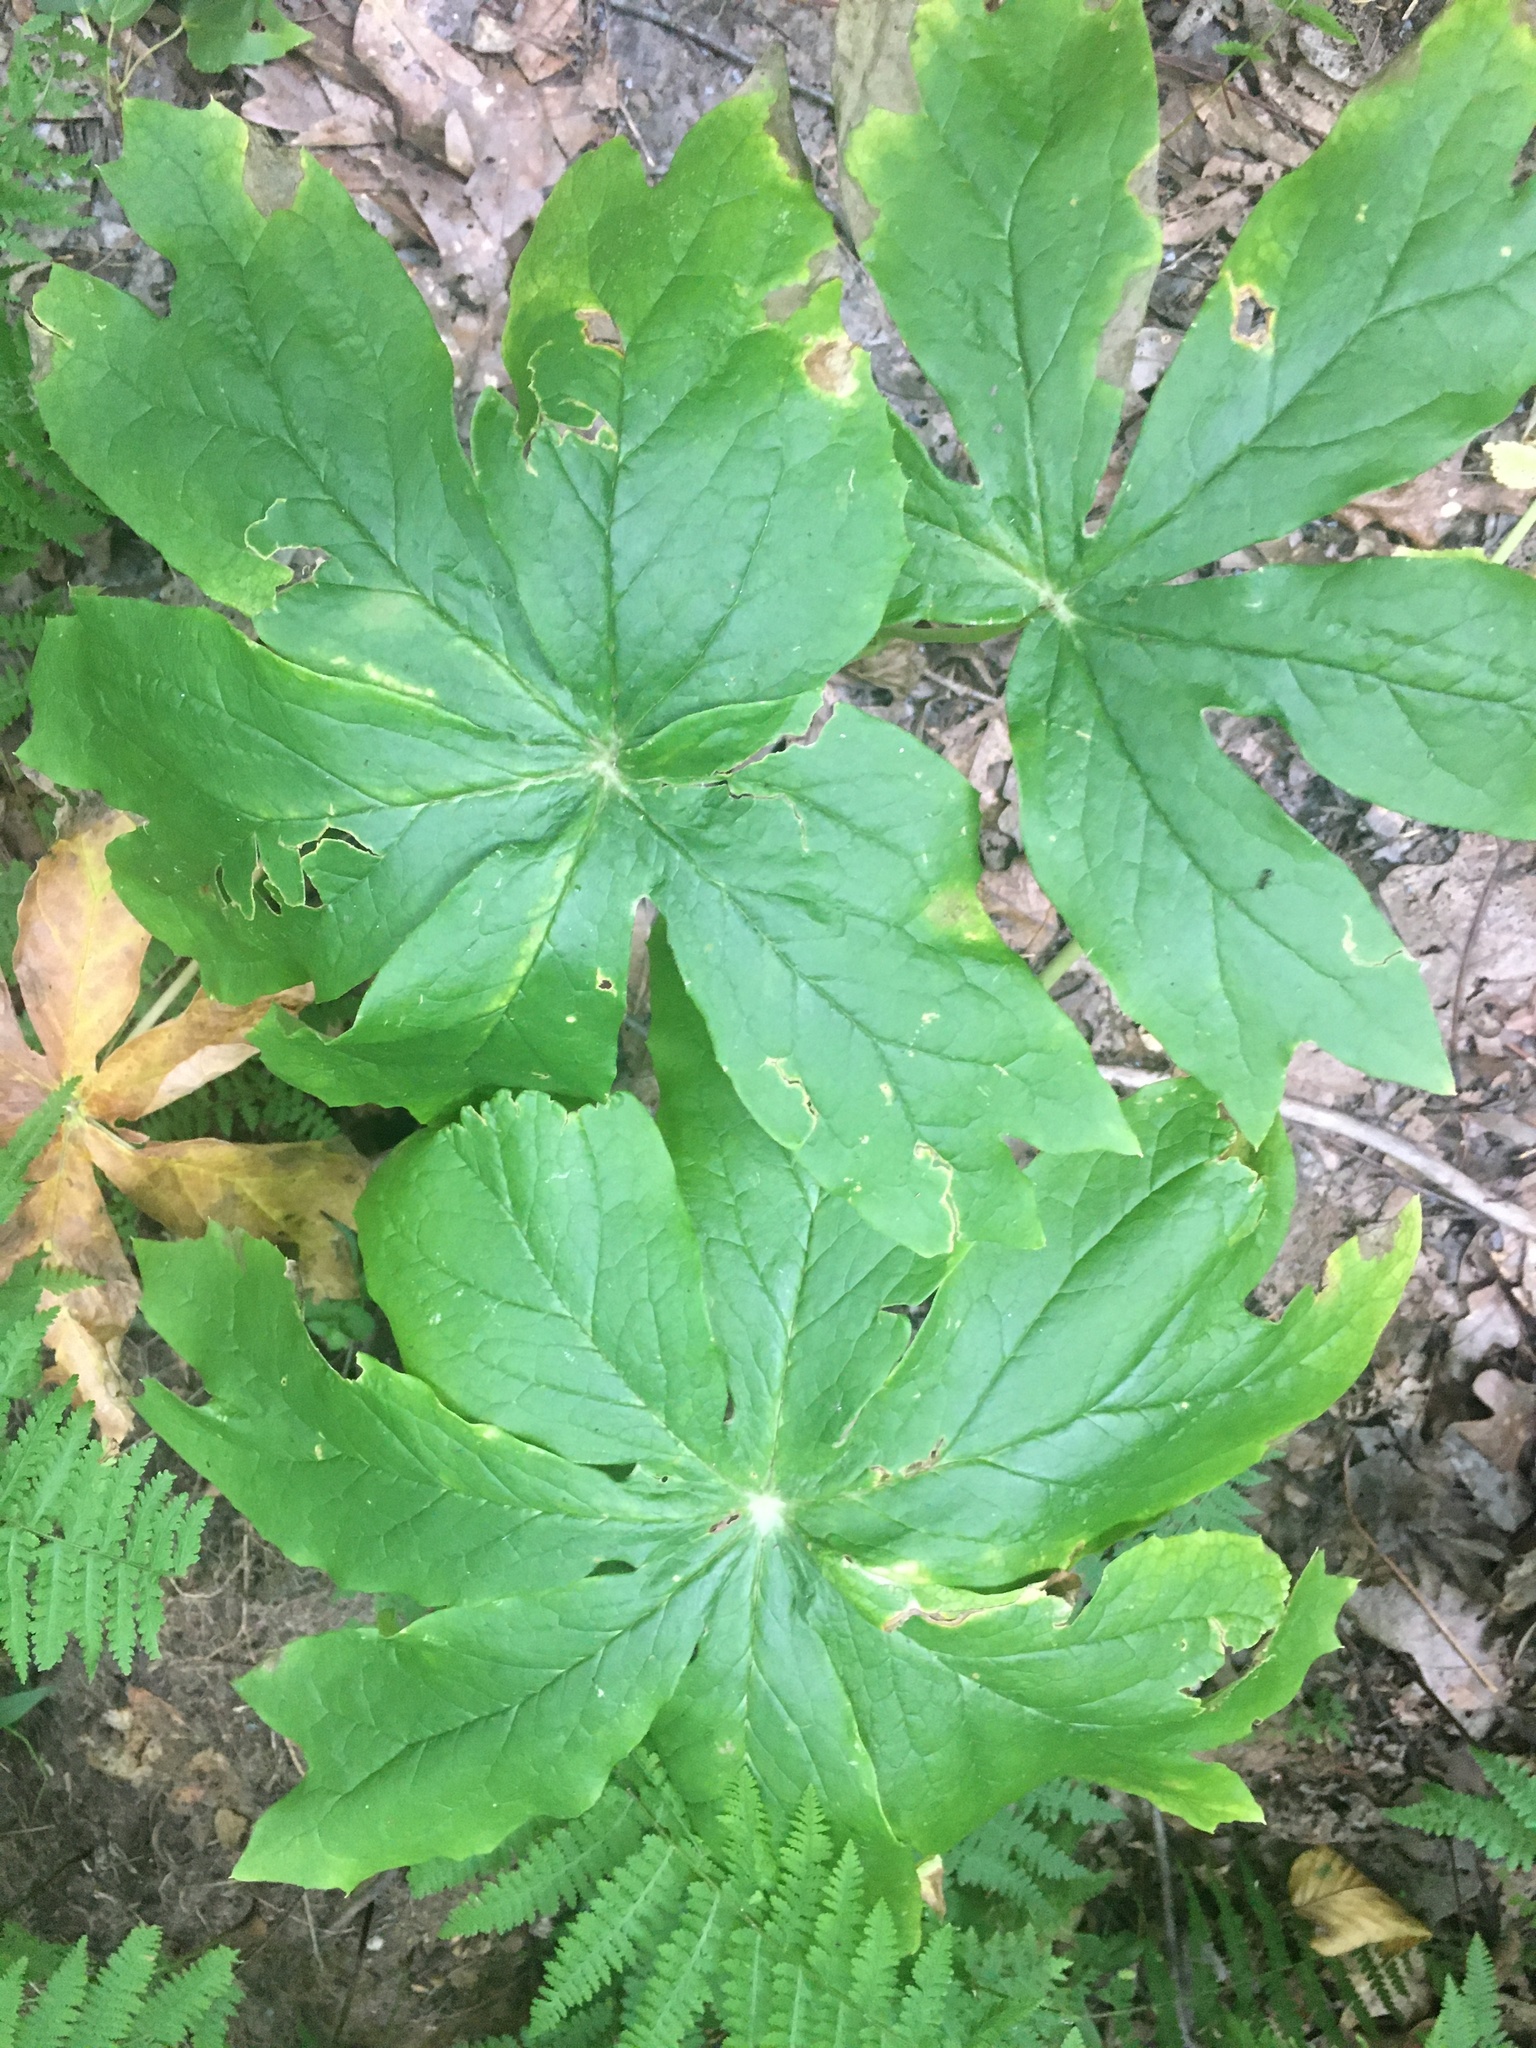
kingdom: Plantae
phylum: Tracheophyta
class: Magnoliopsida
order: Ranunculales
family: Berberidaceae
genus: Podophyllum
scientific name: Podophyllum peltatum
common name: Wild mandrake
